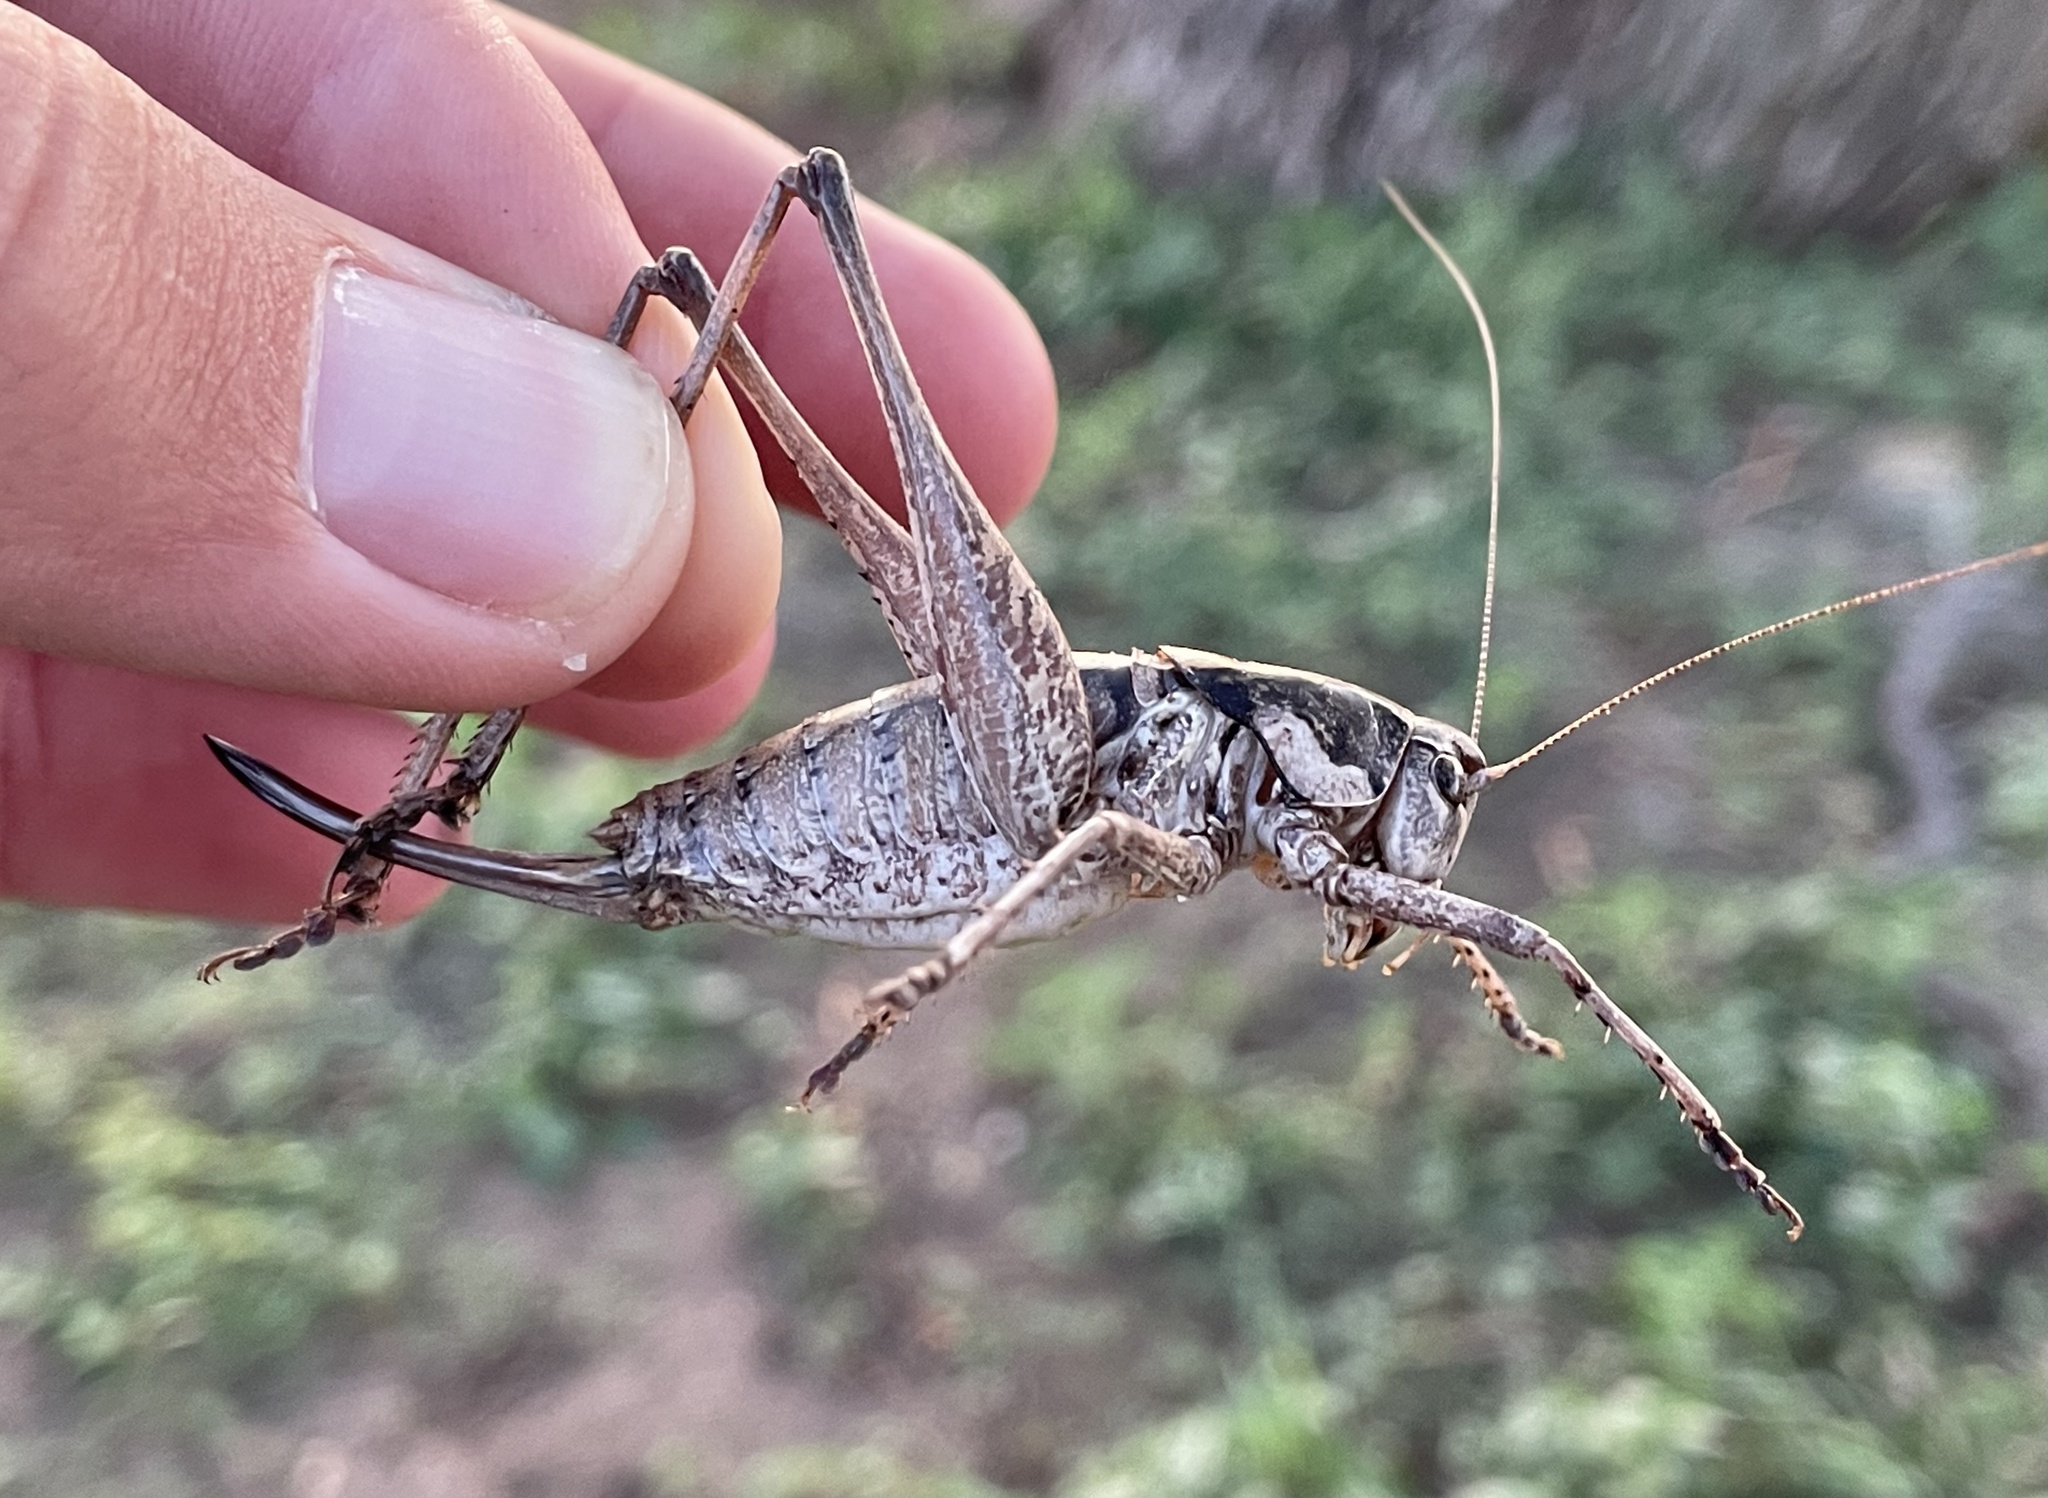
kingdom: Animalia
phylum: Arthropoda
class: Insecta
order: Orthoptera
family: Tettigoniidae
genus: Pediodectes
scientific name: Pediodectes nigromarginatus
